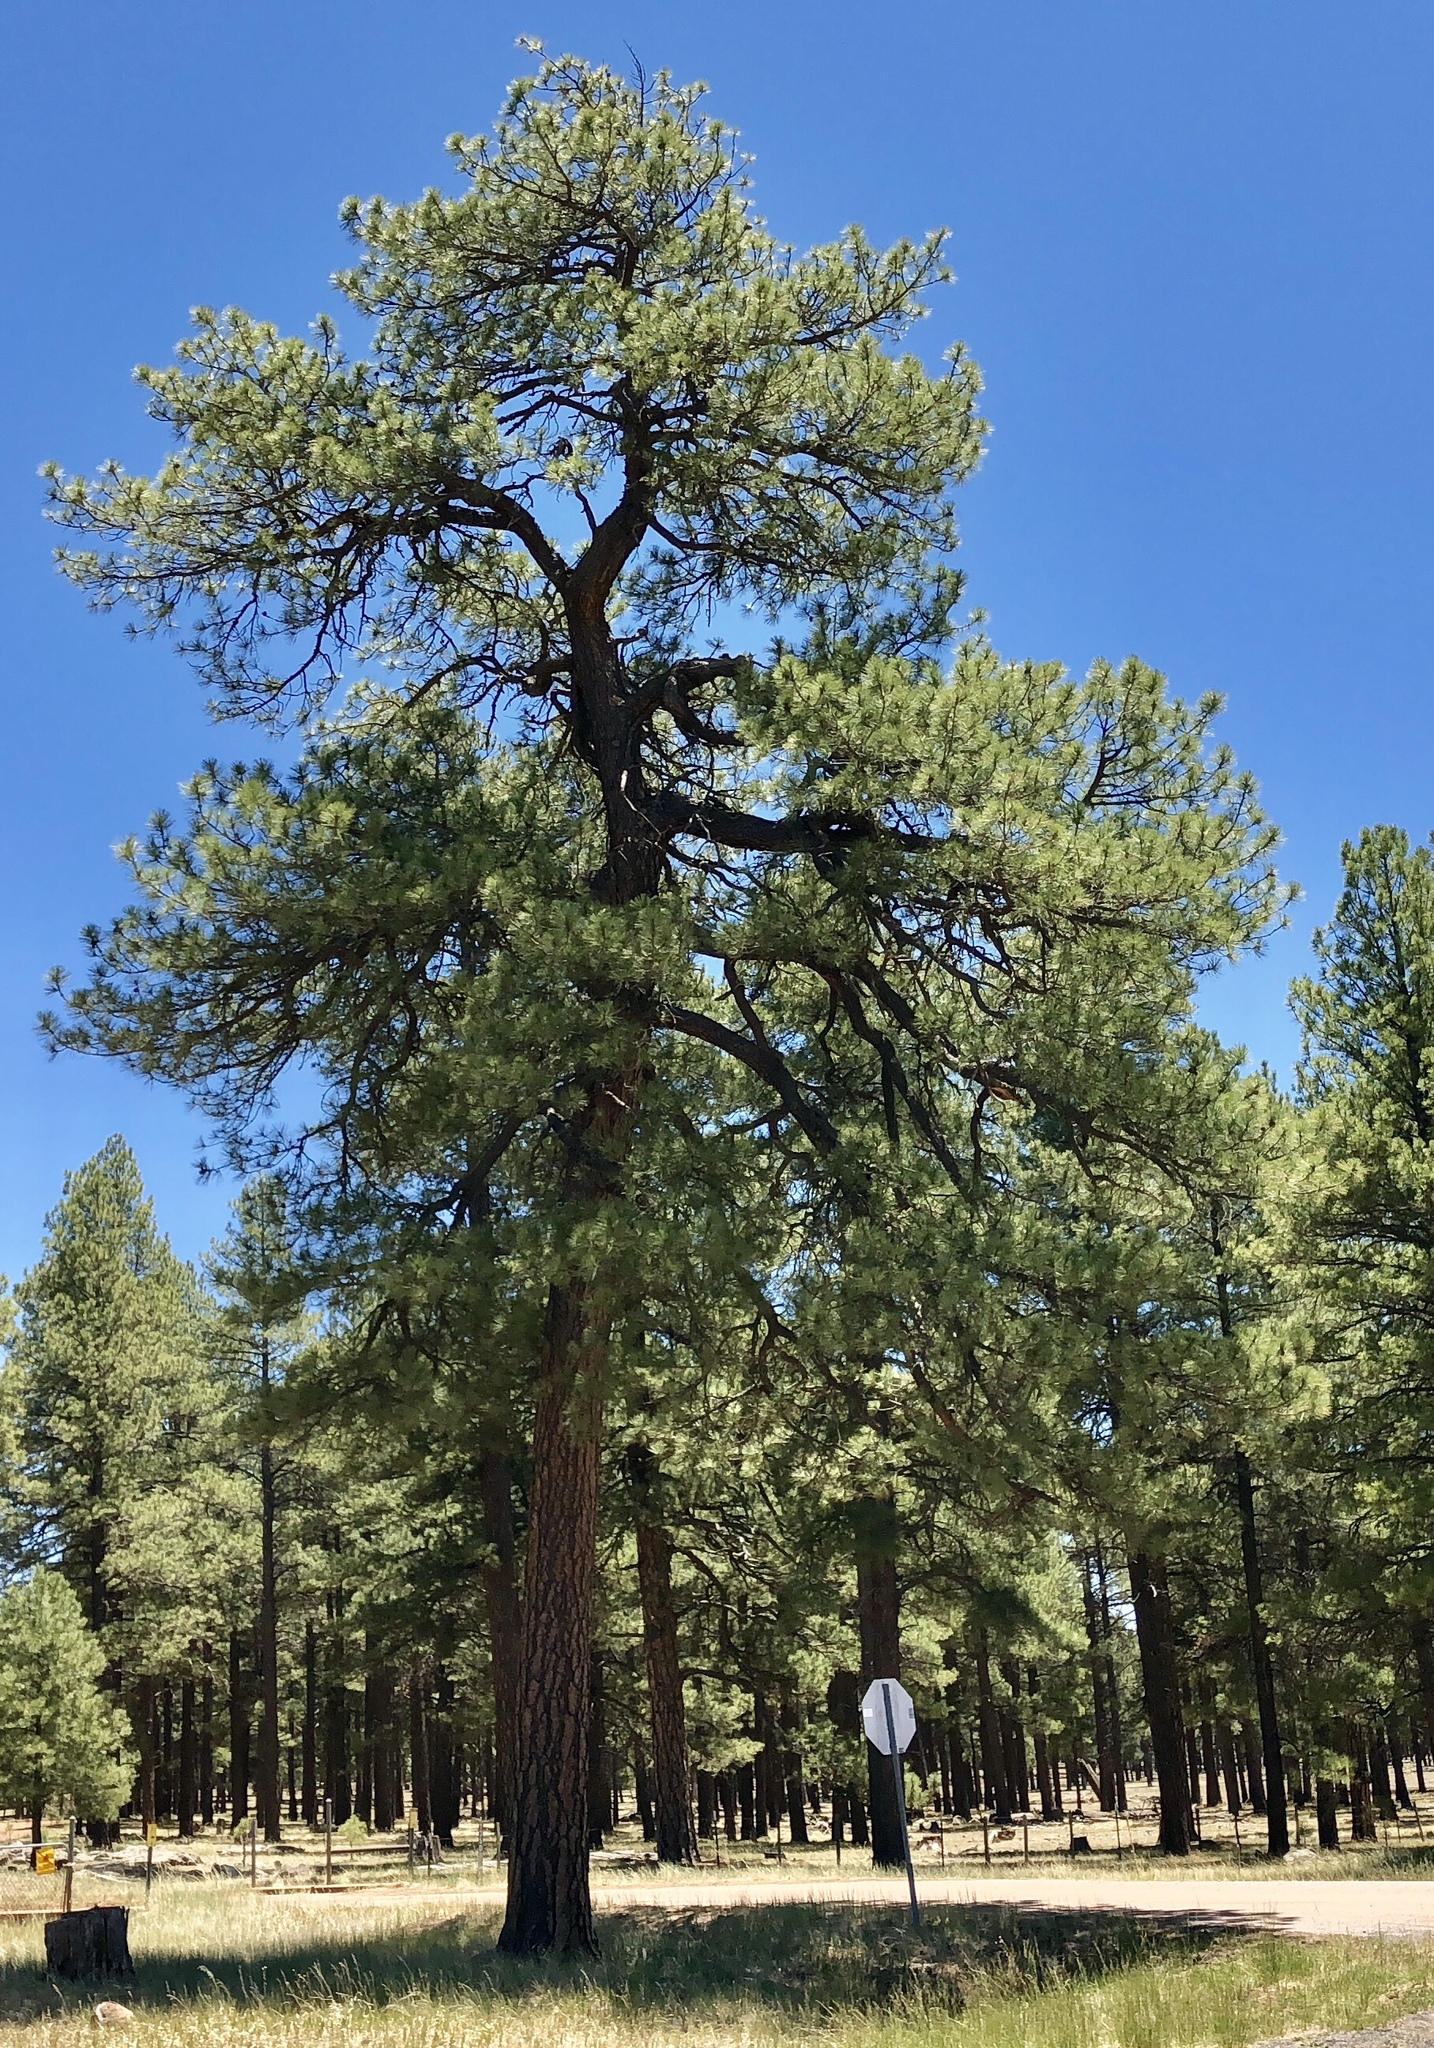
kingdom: Plantae
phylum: Tracheophyta
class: Pinopsida
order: Pinales
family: Pinaceae
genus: Pinus
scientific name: Pinus ponderosa
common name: Western yellow-pine
